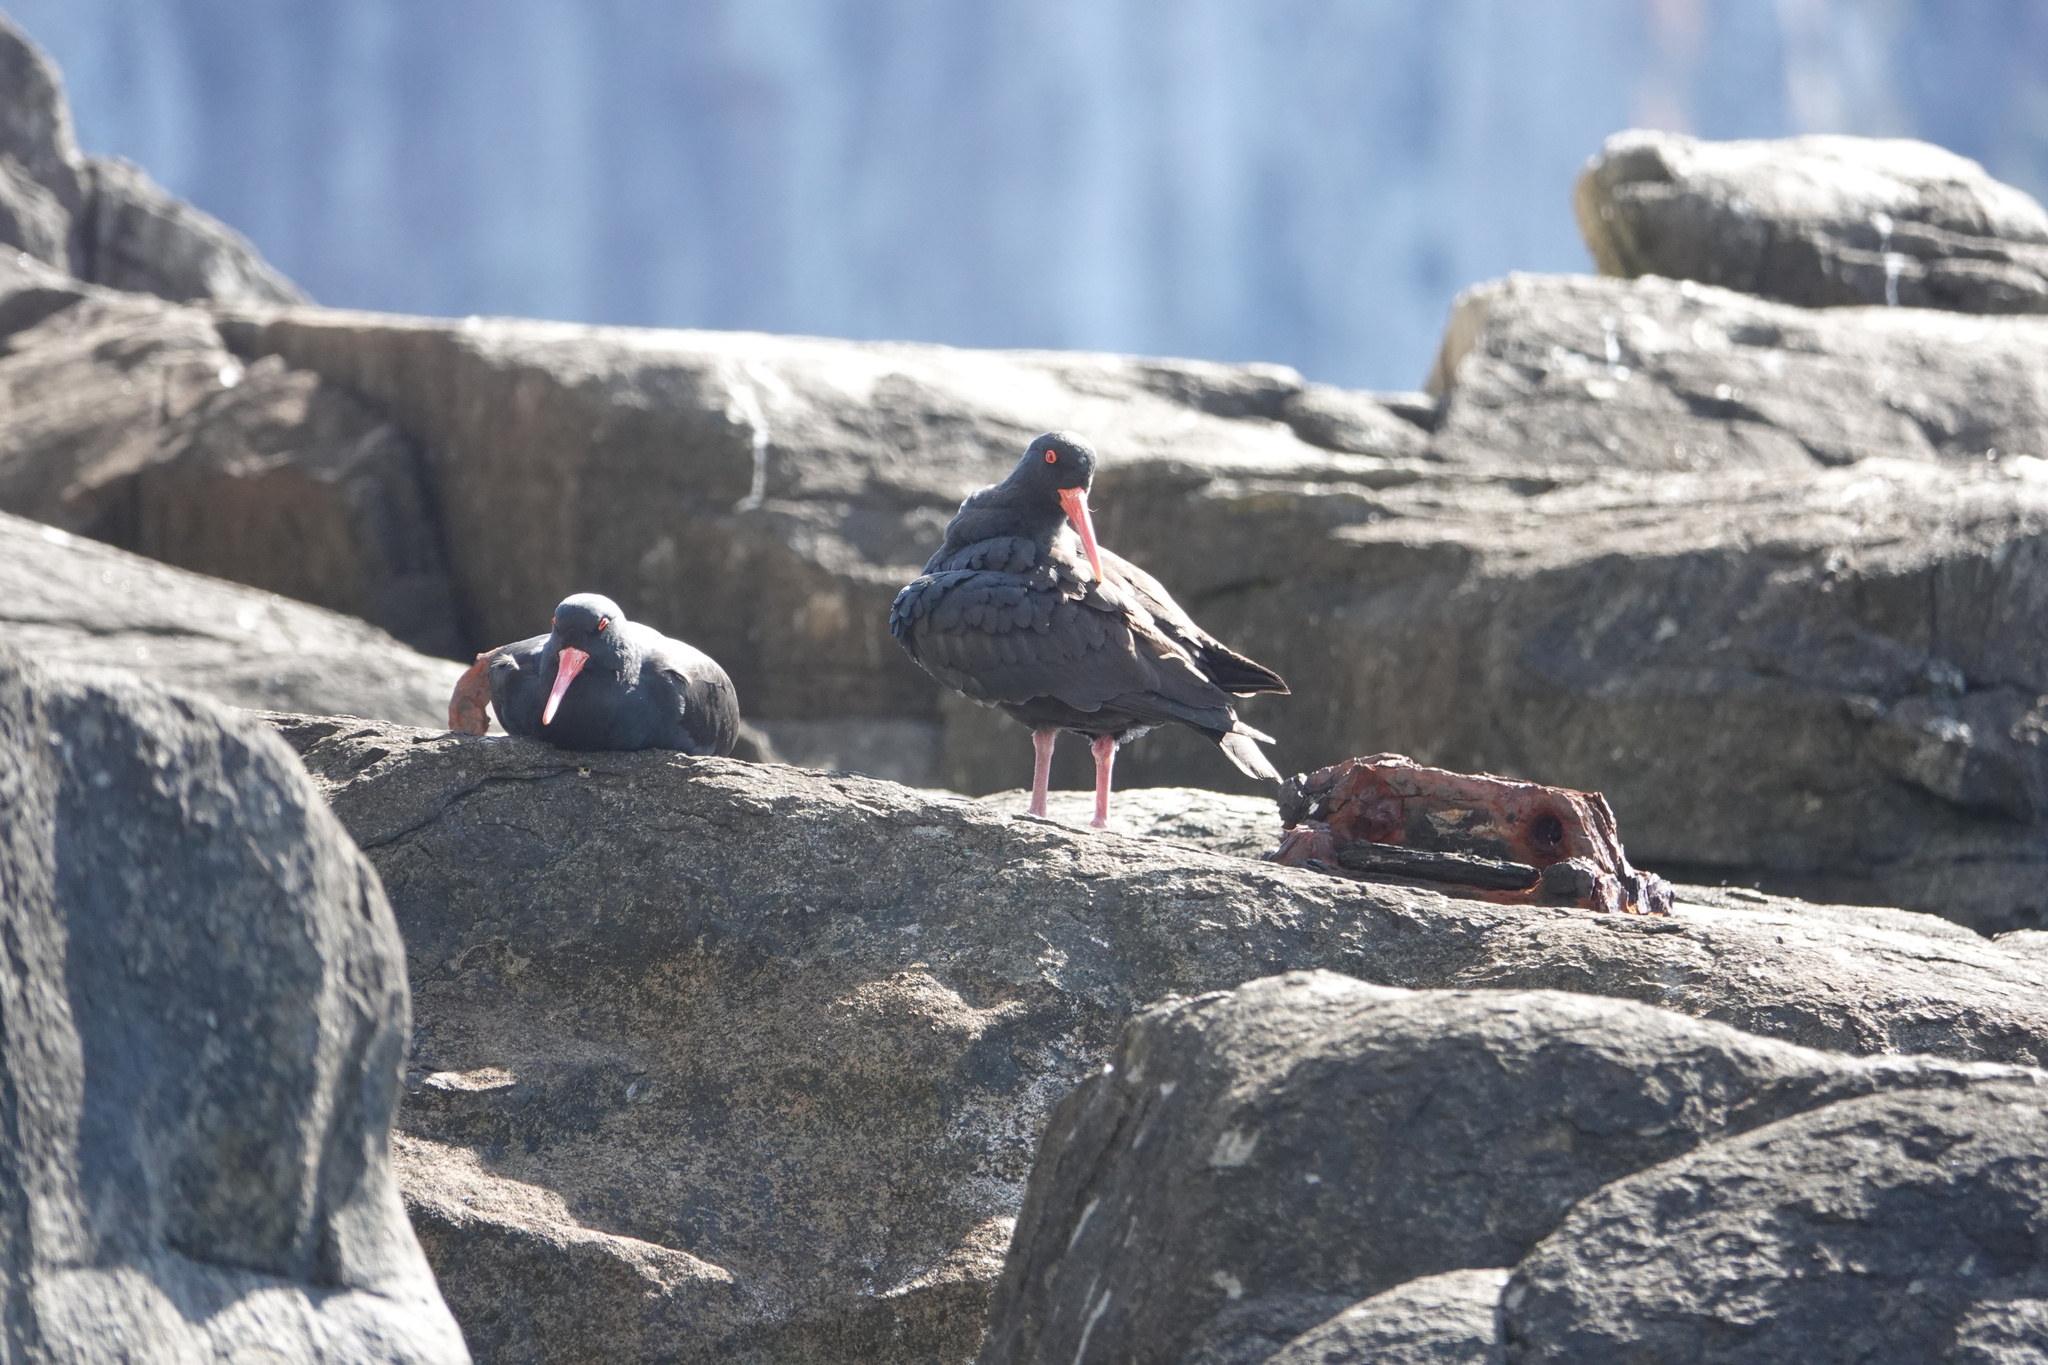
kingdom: Animalia
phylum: Chordata
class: Aves
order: Charadriiformes
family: Haematopodidae
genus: Haematopus
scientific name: Haematopus fuliginosus
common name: Sooty oystercatcher
